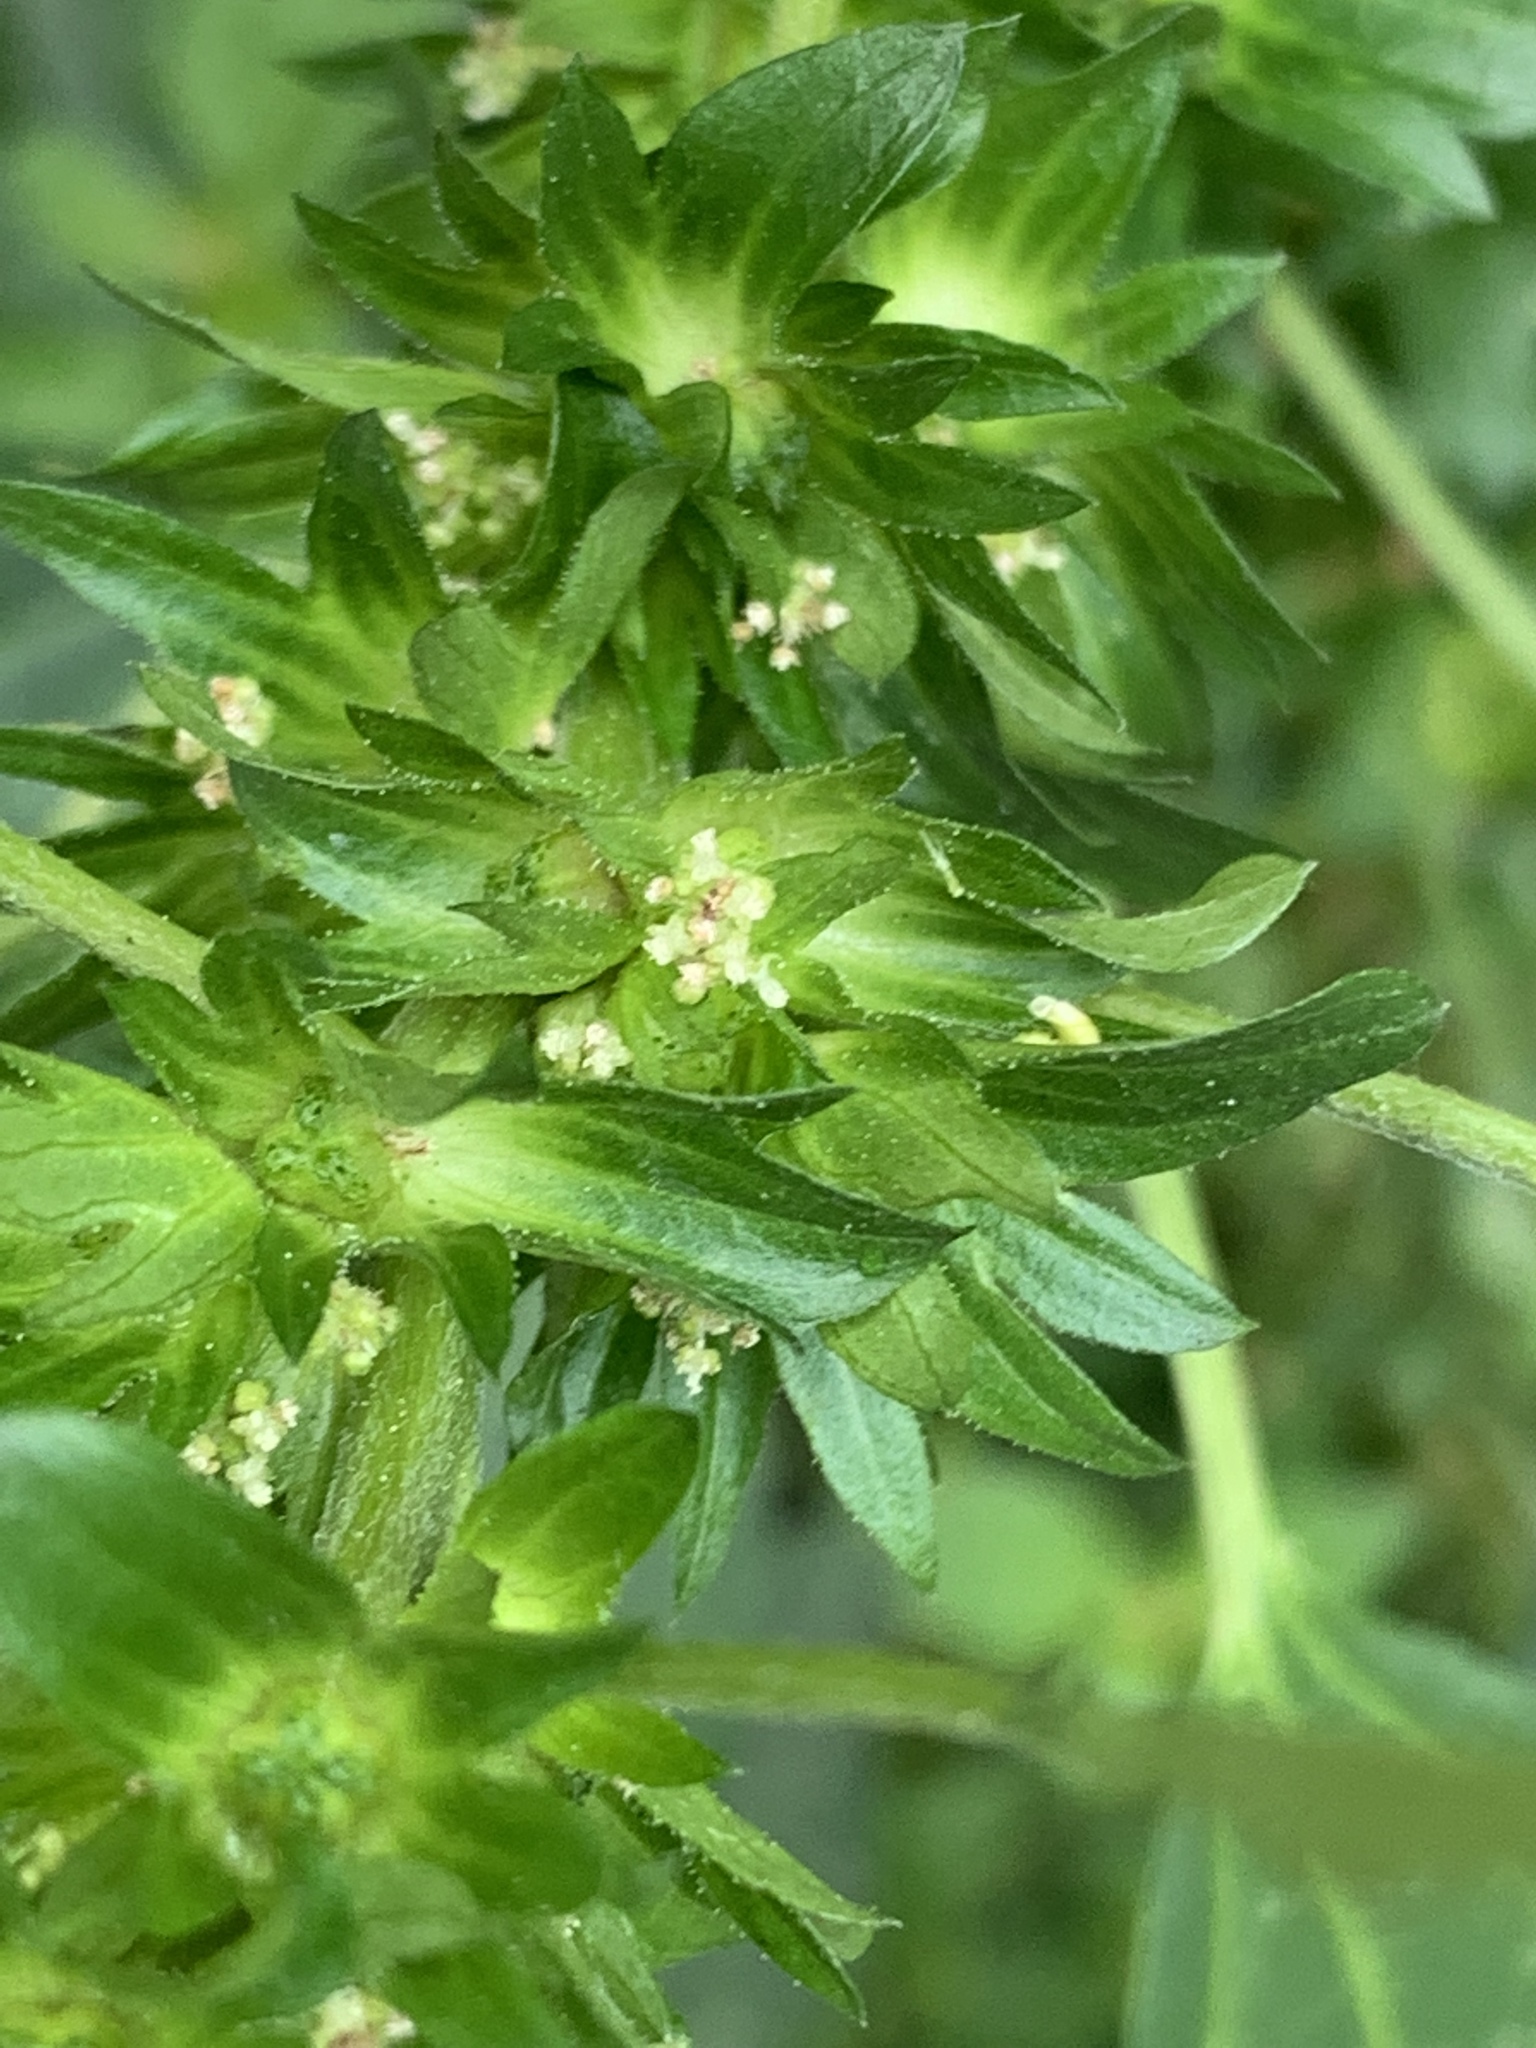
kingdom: Plantae
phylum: Tracheophyta
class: Magnoliopsida
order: Malpighiales
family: Euphorbiaceae
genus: Acalypha
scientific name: Acalypha rhomboidea
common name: Rhombic copperleaf
